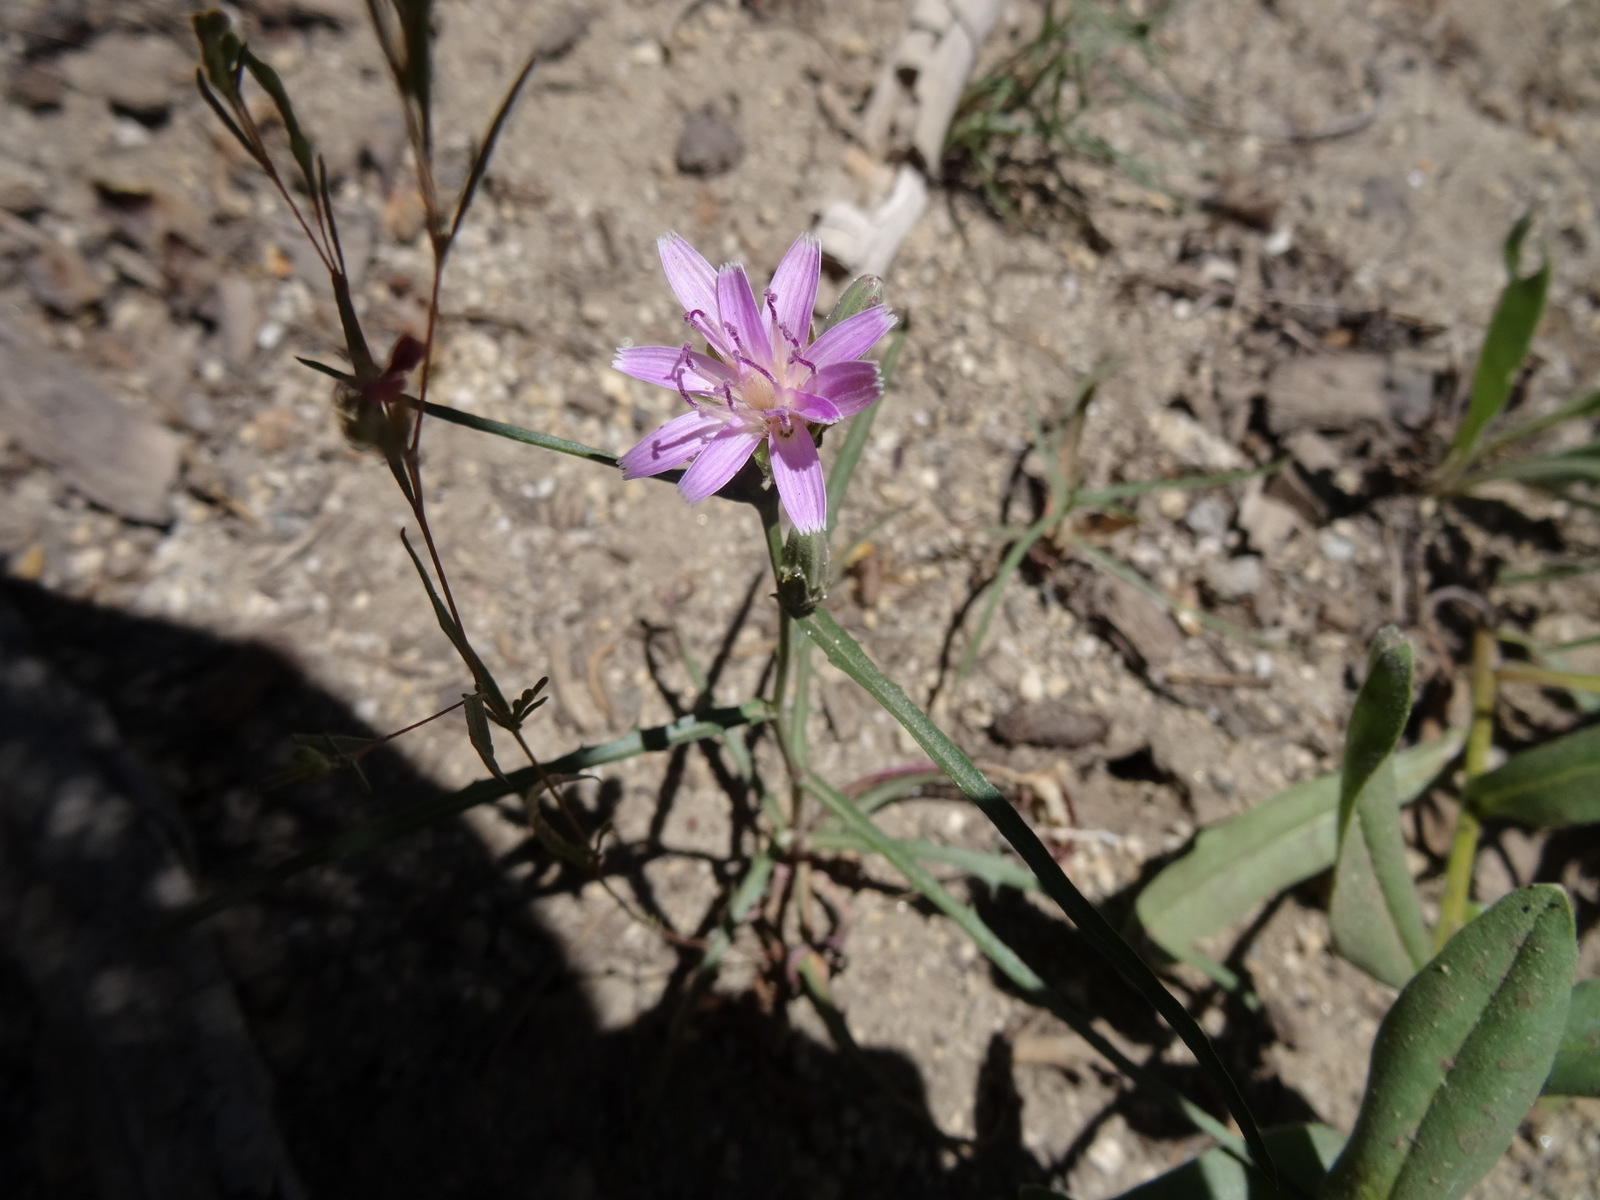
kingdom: Plantae
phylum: Tracheophyta
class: Magnoliopsida
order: Asterales
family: Asteraceae
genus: Stephanomeria
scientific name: Stephanomeria lactucina
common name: Large-flowered wirelettuce
